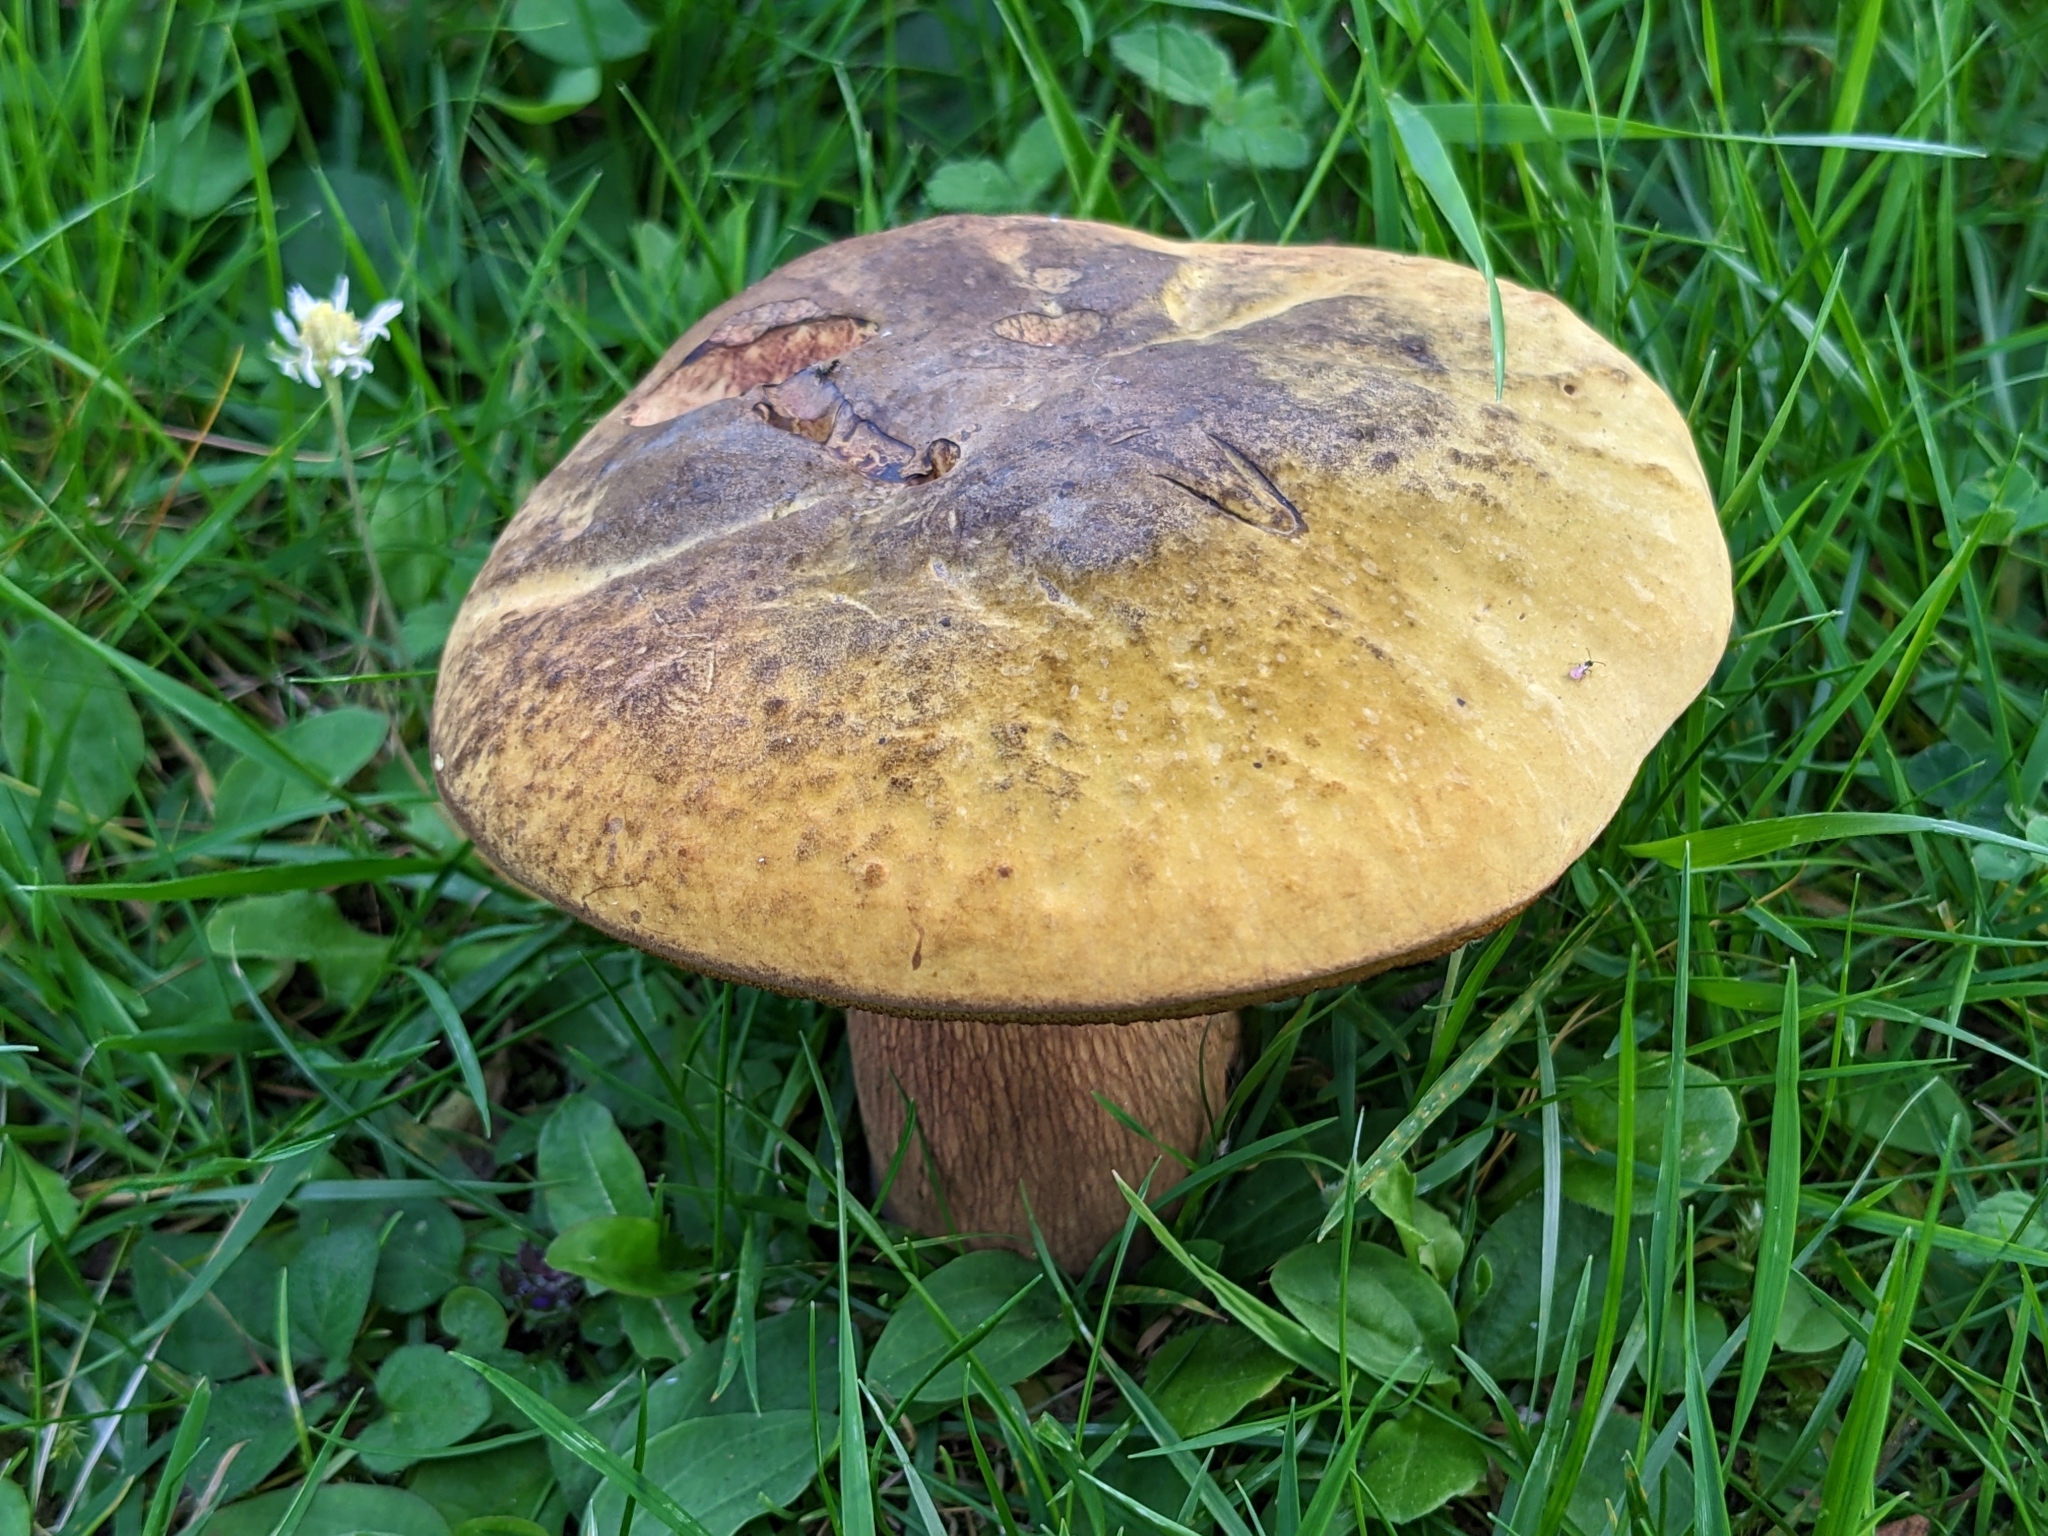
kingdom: Fungi
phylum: Basidiomycota
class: Agaricomycetes
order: Boletales
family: Boletaceae
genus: Suillellus
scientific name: Suillellus luridus
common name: Lurid bolete
